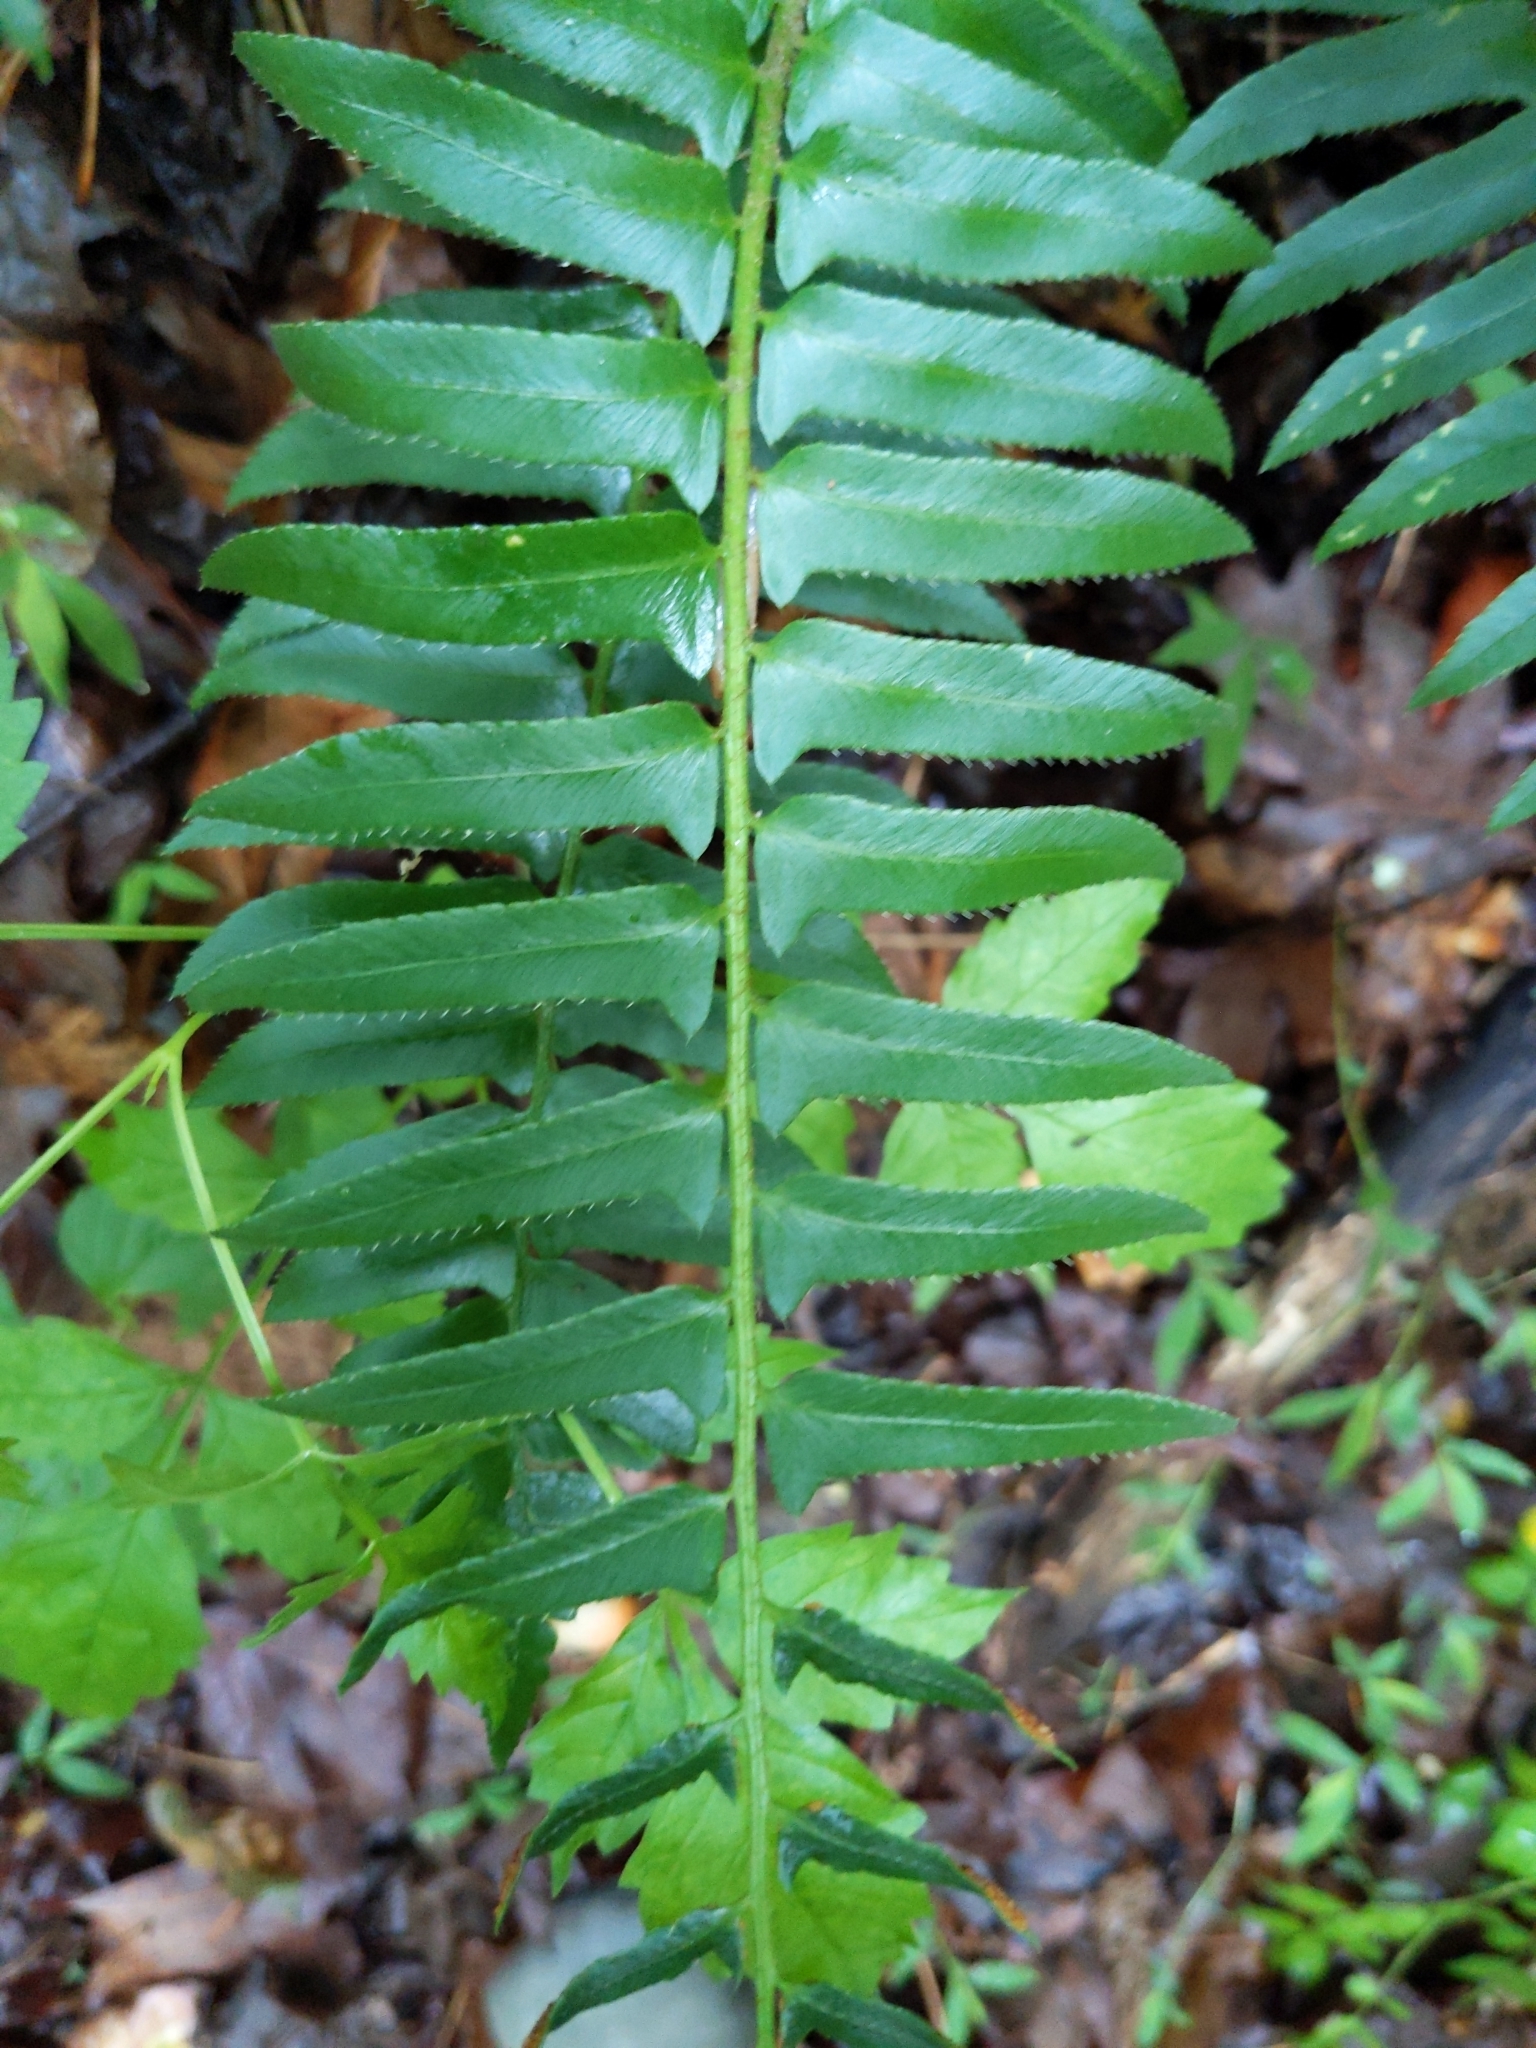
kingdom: Plantae
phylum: Tracheophyta
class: Polypodiopsida
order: Polypodiales
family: Dryopteridaceae
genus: Polystichum
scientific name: Polystichum acrostichoides
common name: Christmas fern
